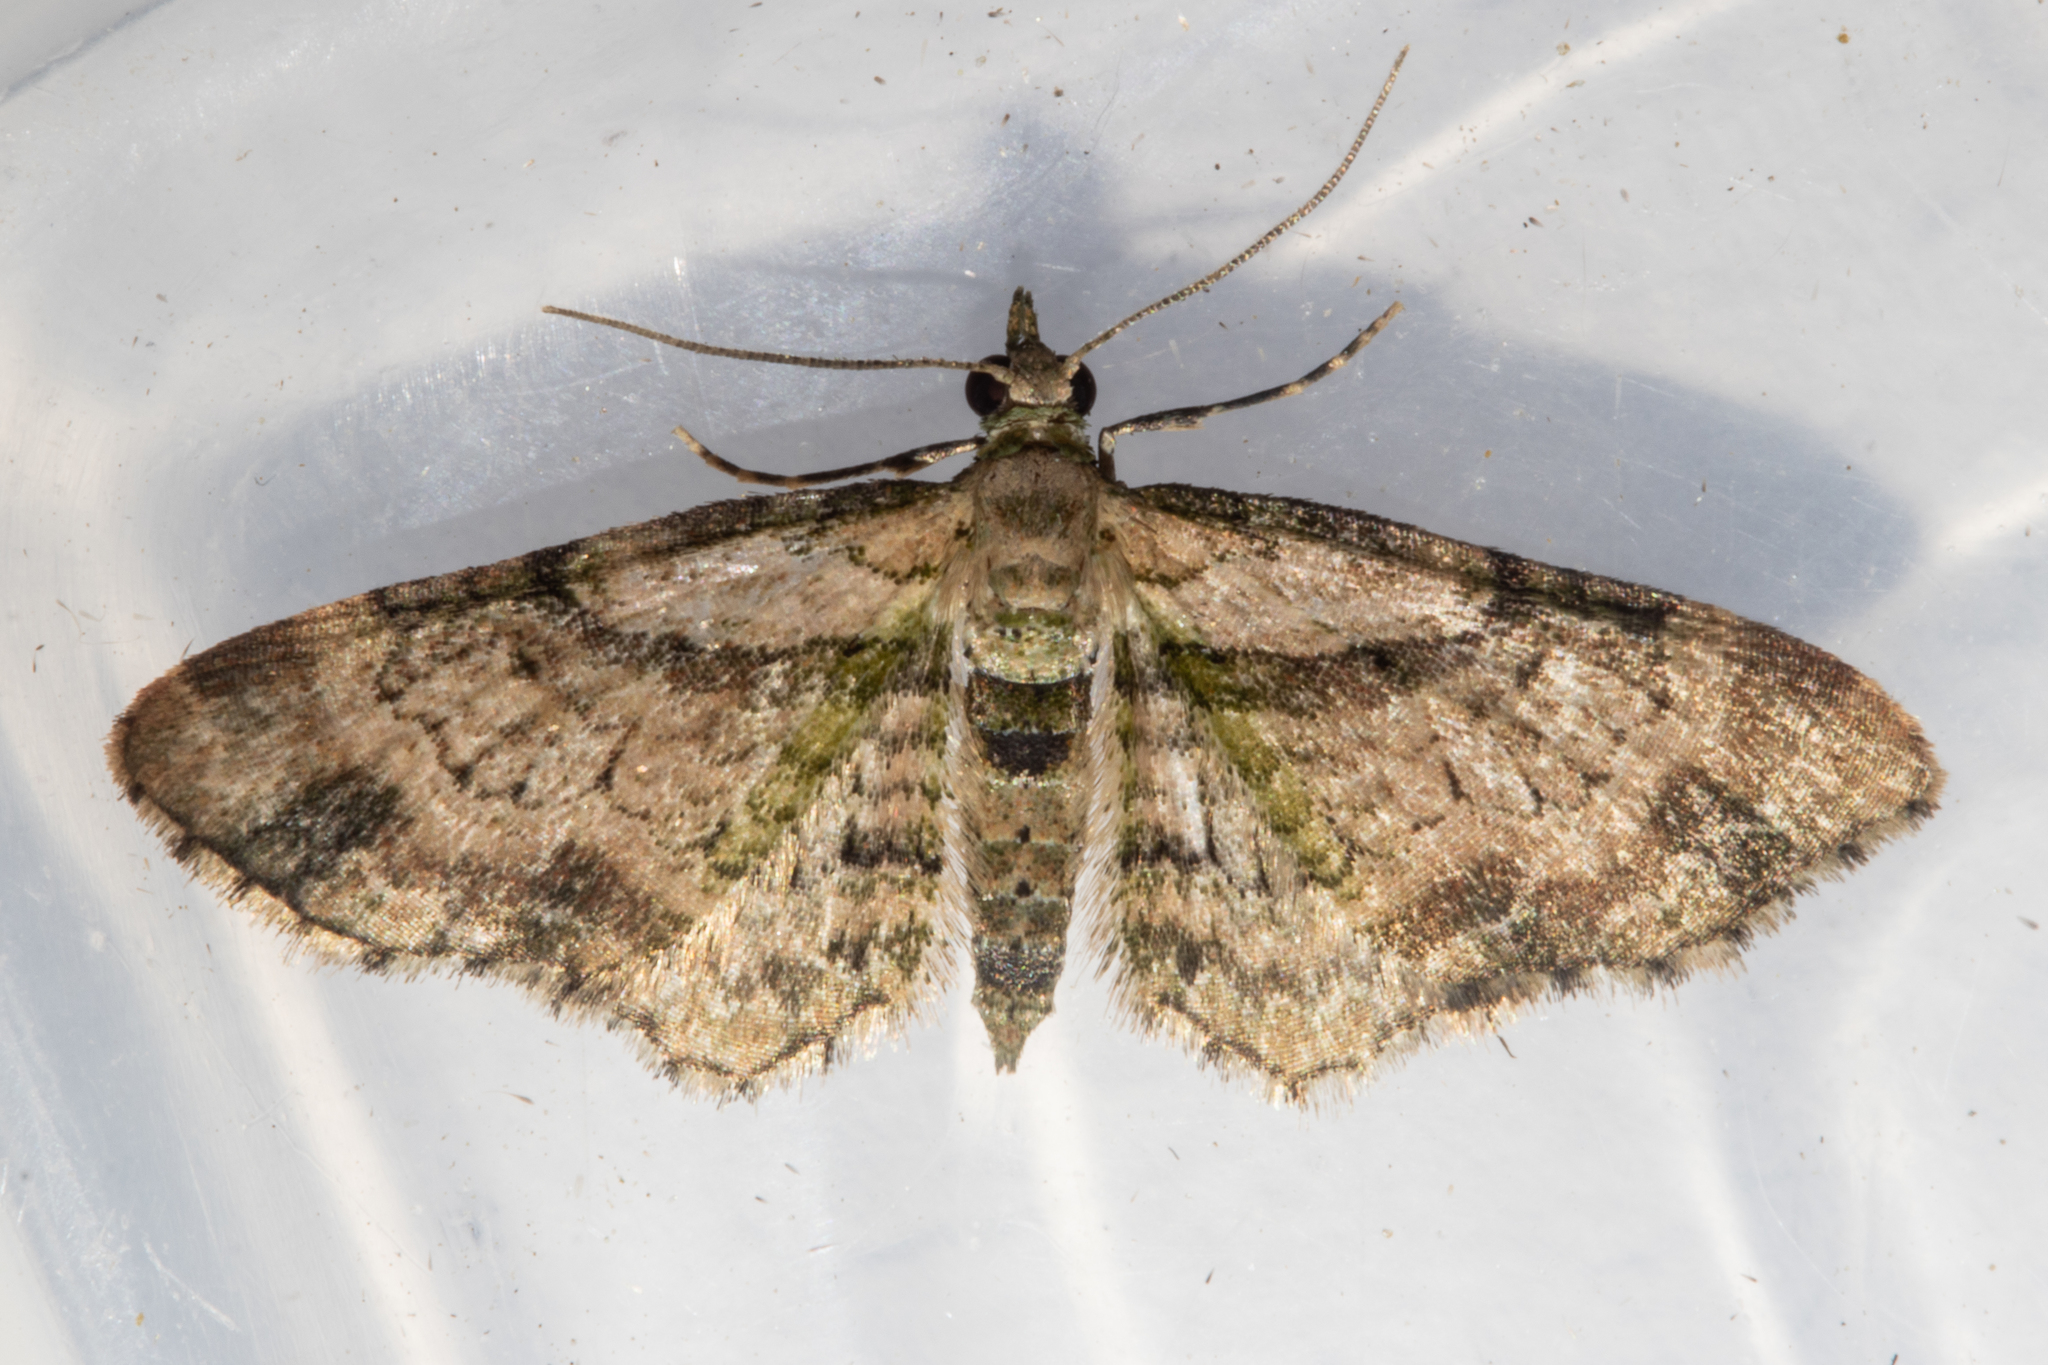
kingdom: Animalia
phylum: Arthropoda
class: Insecta
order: Lepidoptera
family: Geometridae
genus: Chloroclystis
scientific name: Chloroclystis
